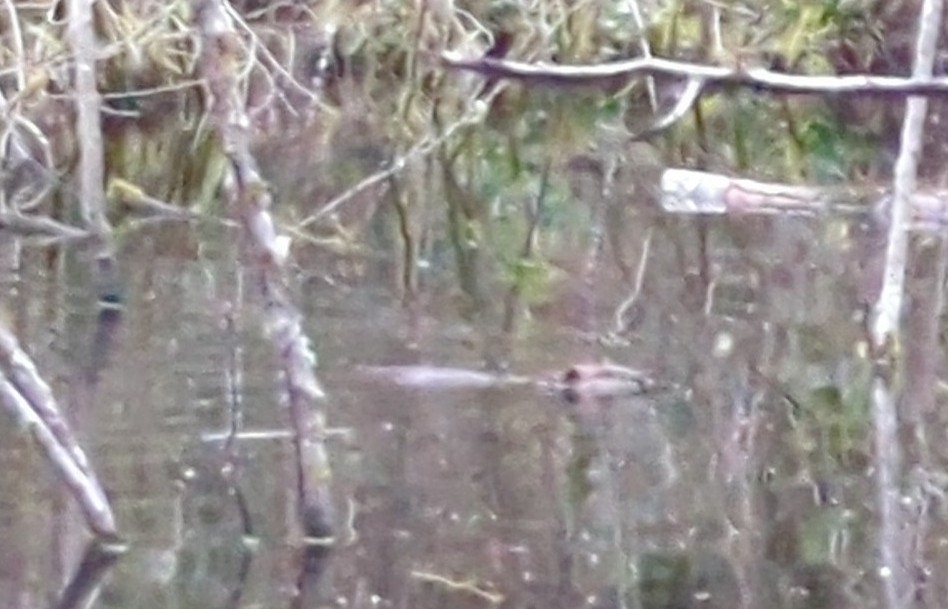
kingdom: Animalia
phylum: Chordata
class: Mammalia
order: Rodentia
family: Castoridae
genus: Castor
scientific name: Castor canadensis
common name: American beaver
